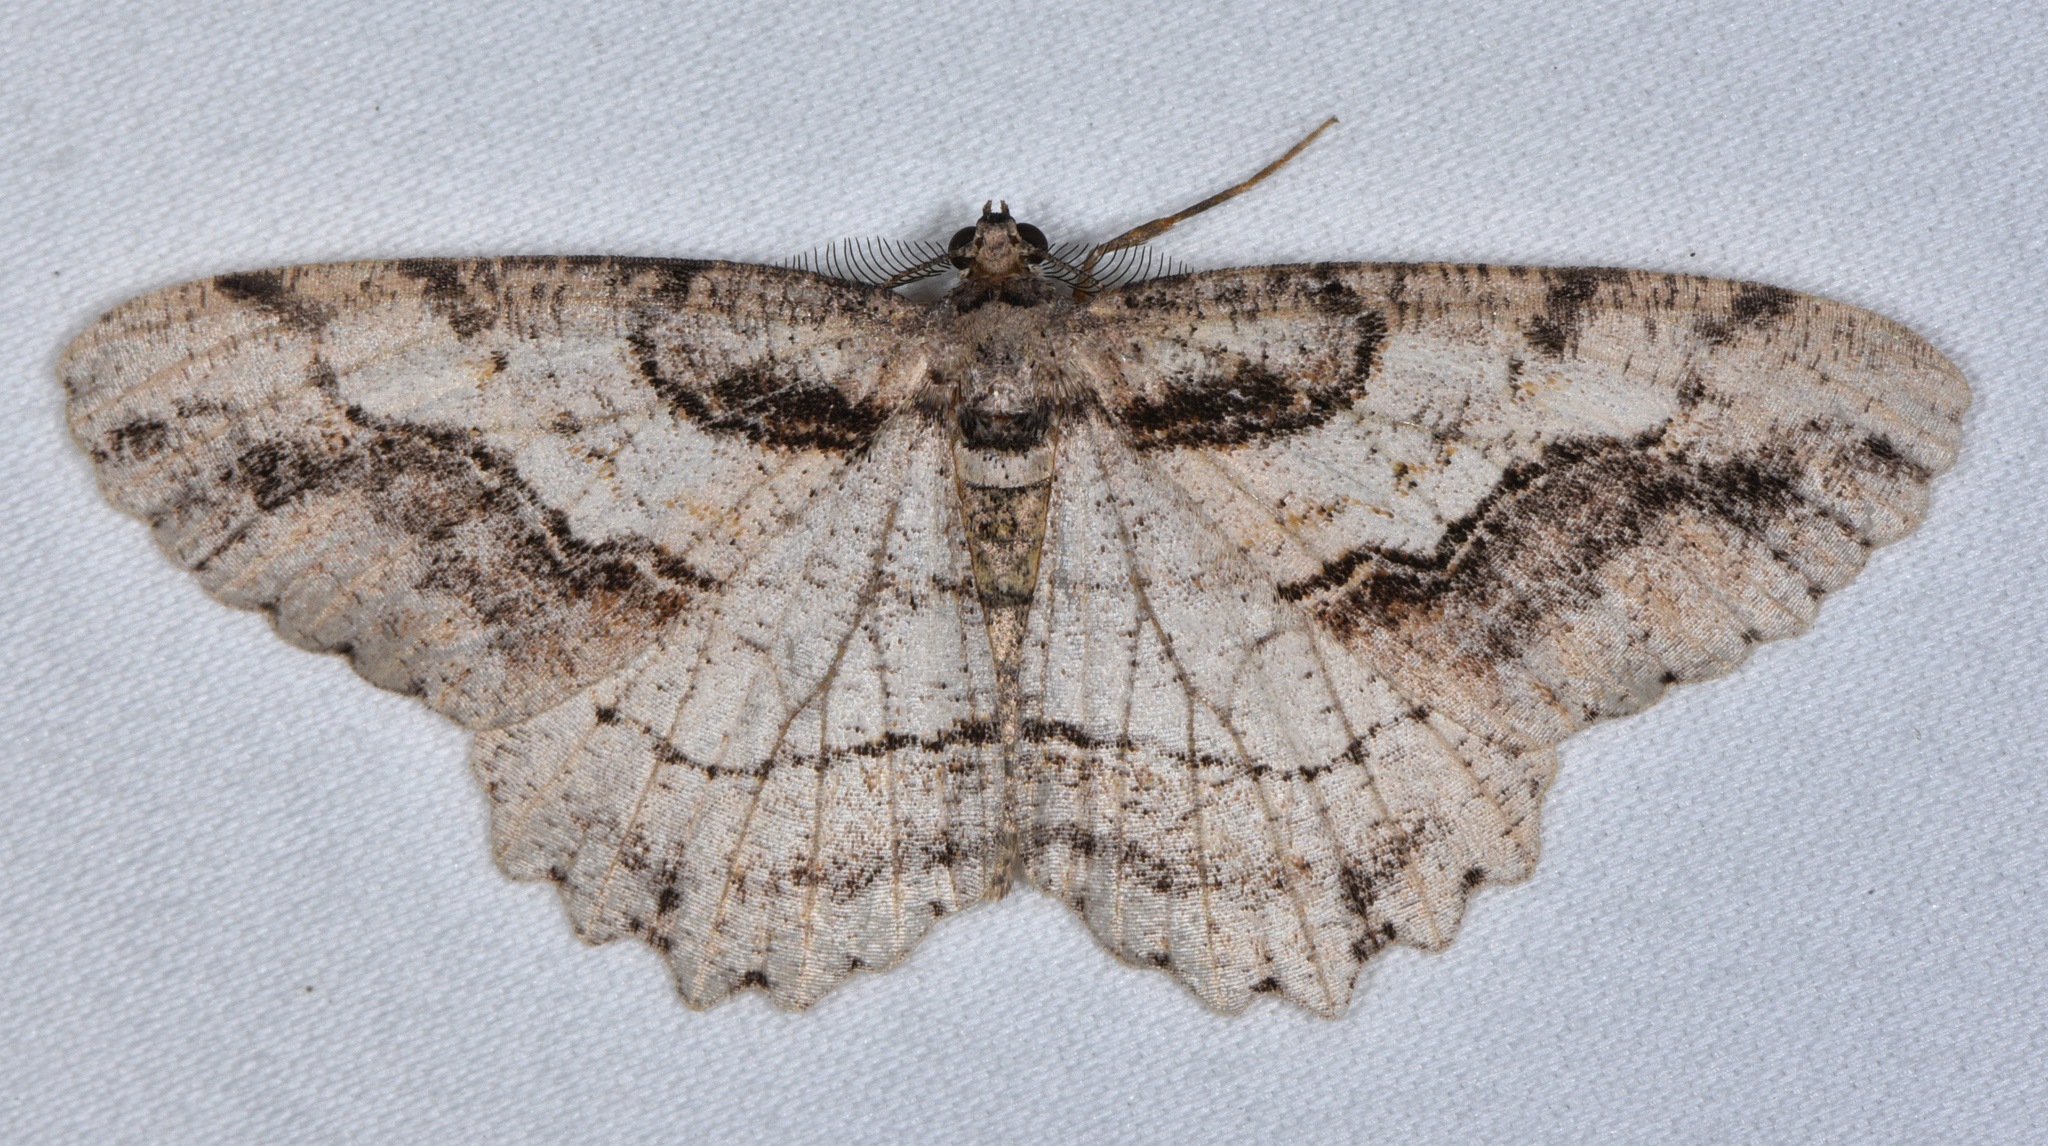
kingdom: Animalia
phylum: Arthropoda
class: Insecta
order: Lepidoptera
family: Geometridae
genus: Neoalcis
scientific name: Neoalcis californiaria
